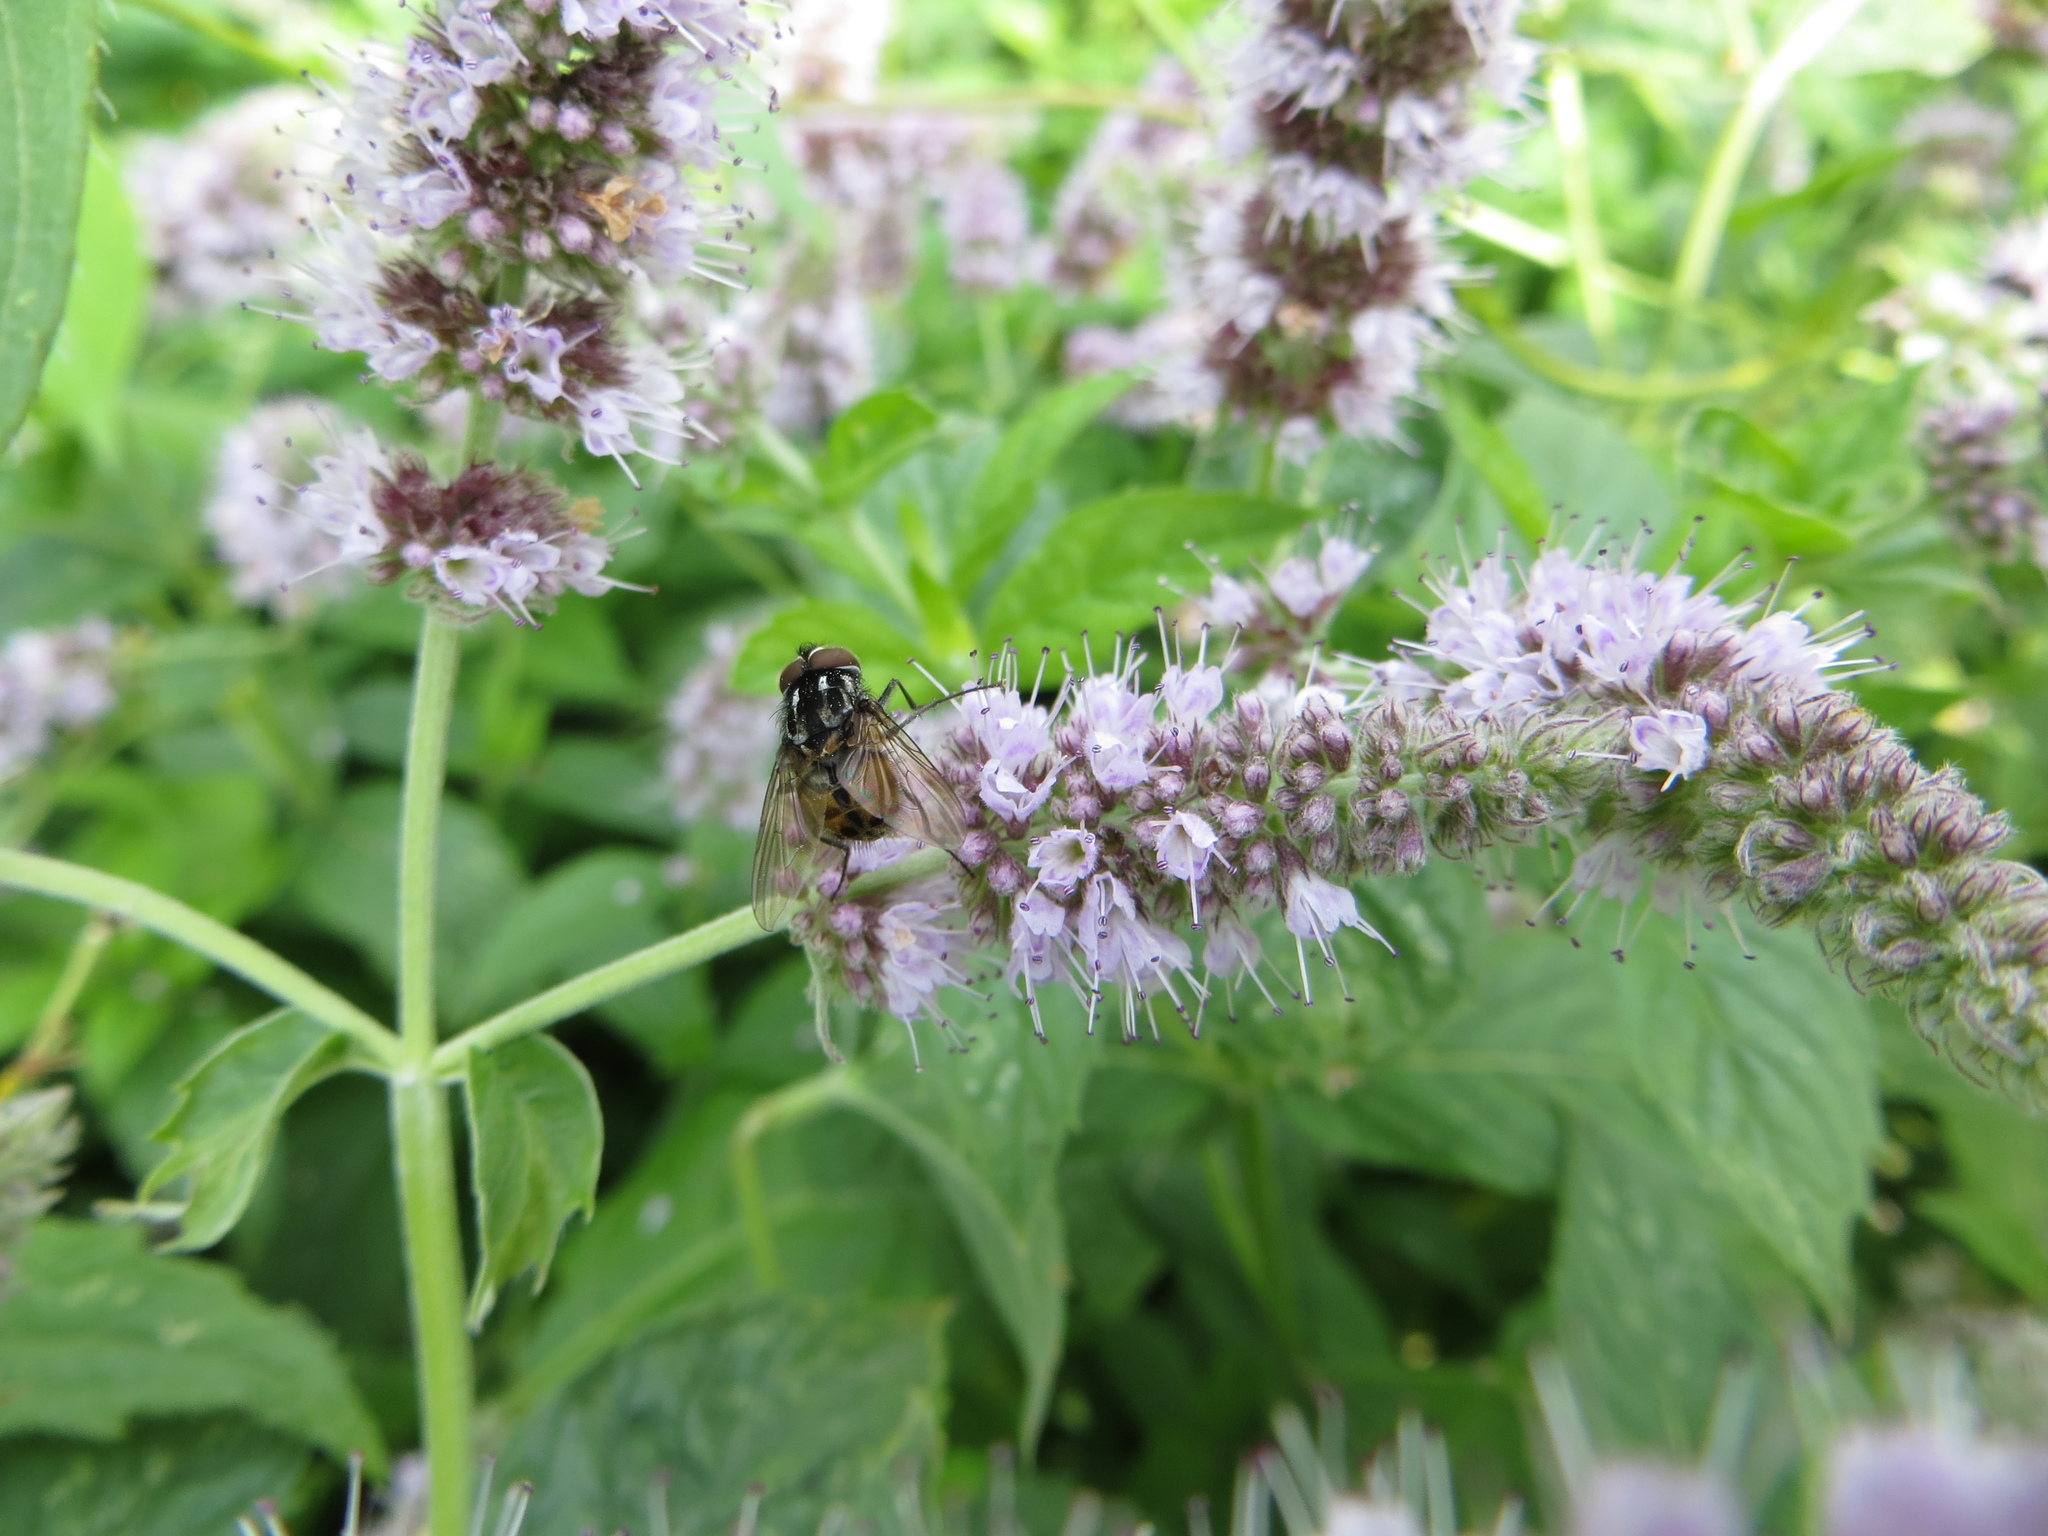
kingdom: Animalia
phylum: Arthropoda
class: Insecta
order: Diptera
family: Muscidae
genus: Graphomya
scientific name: Graphomya maculata
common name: Muscid fly
